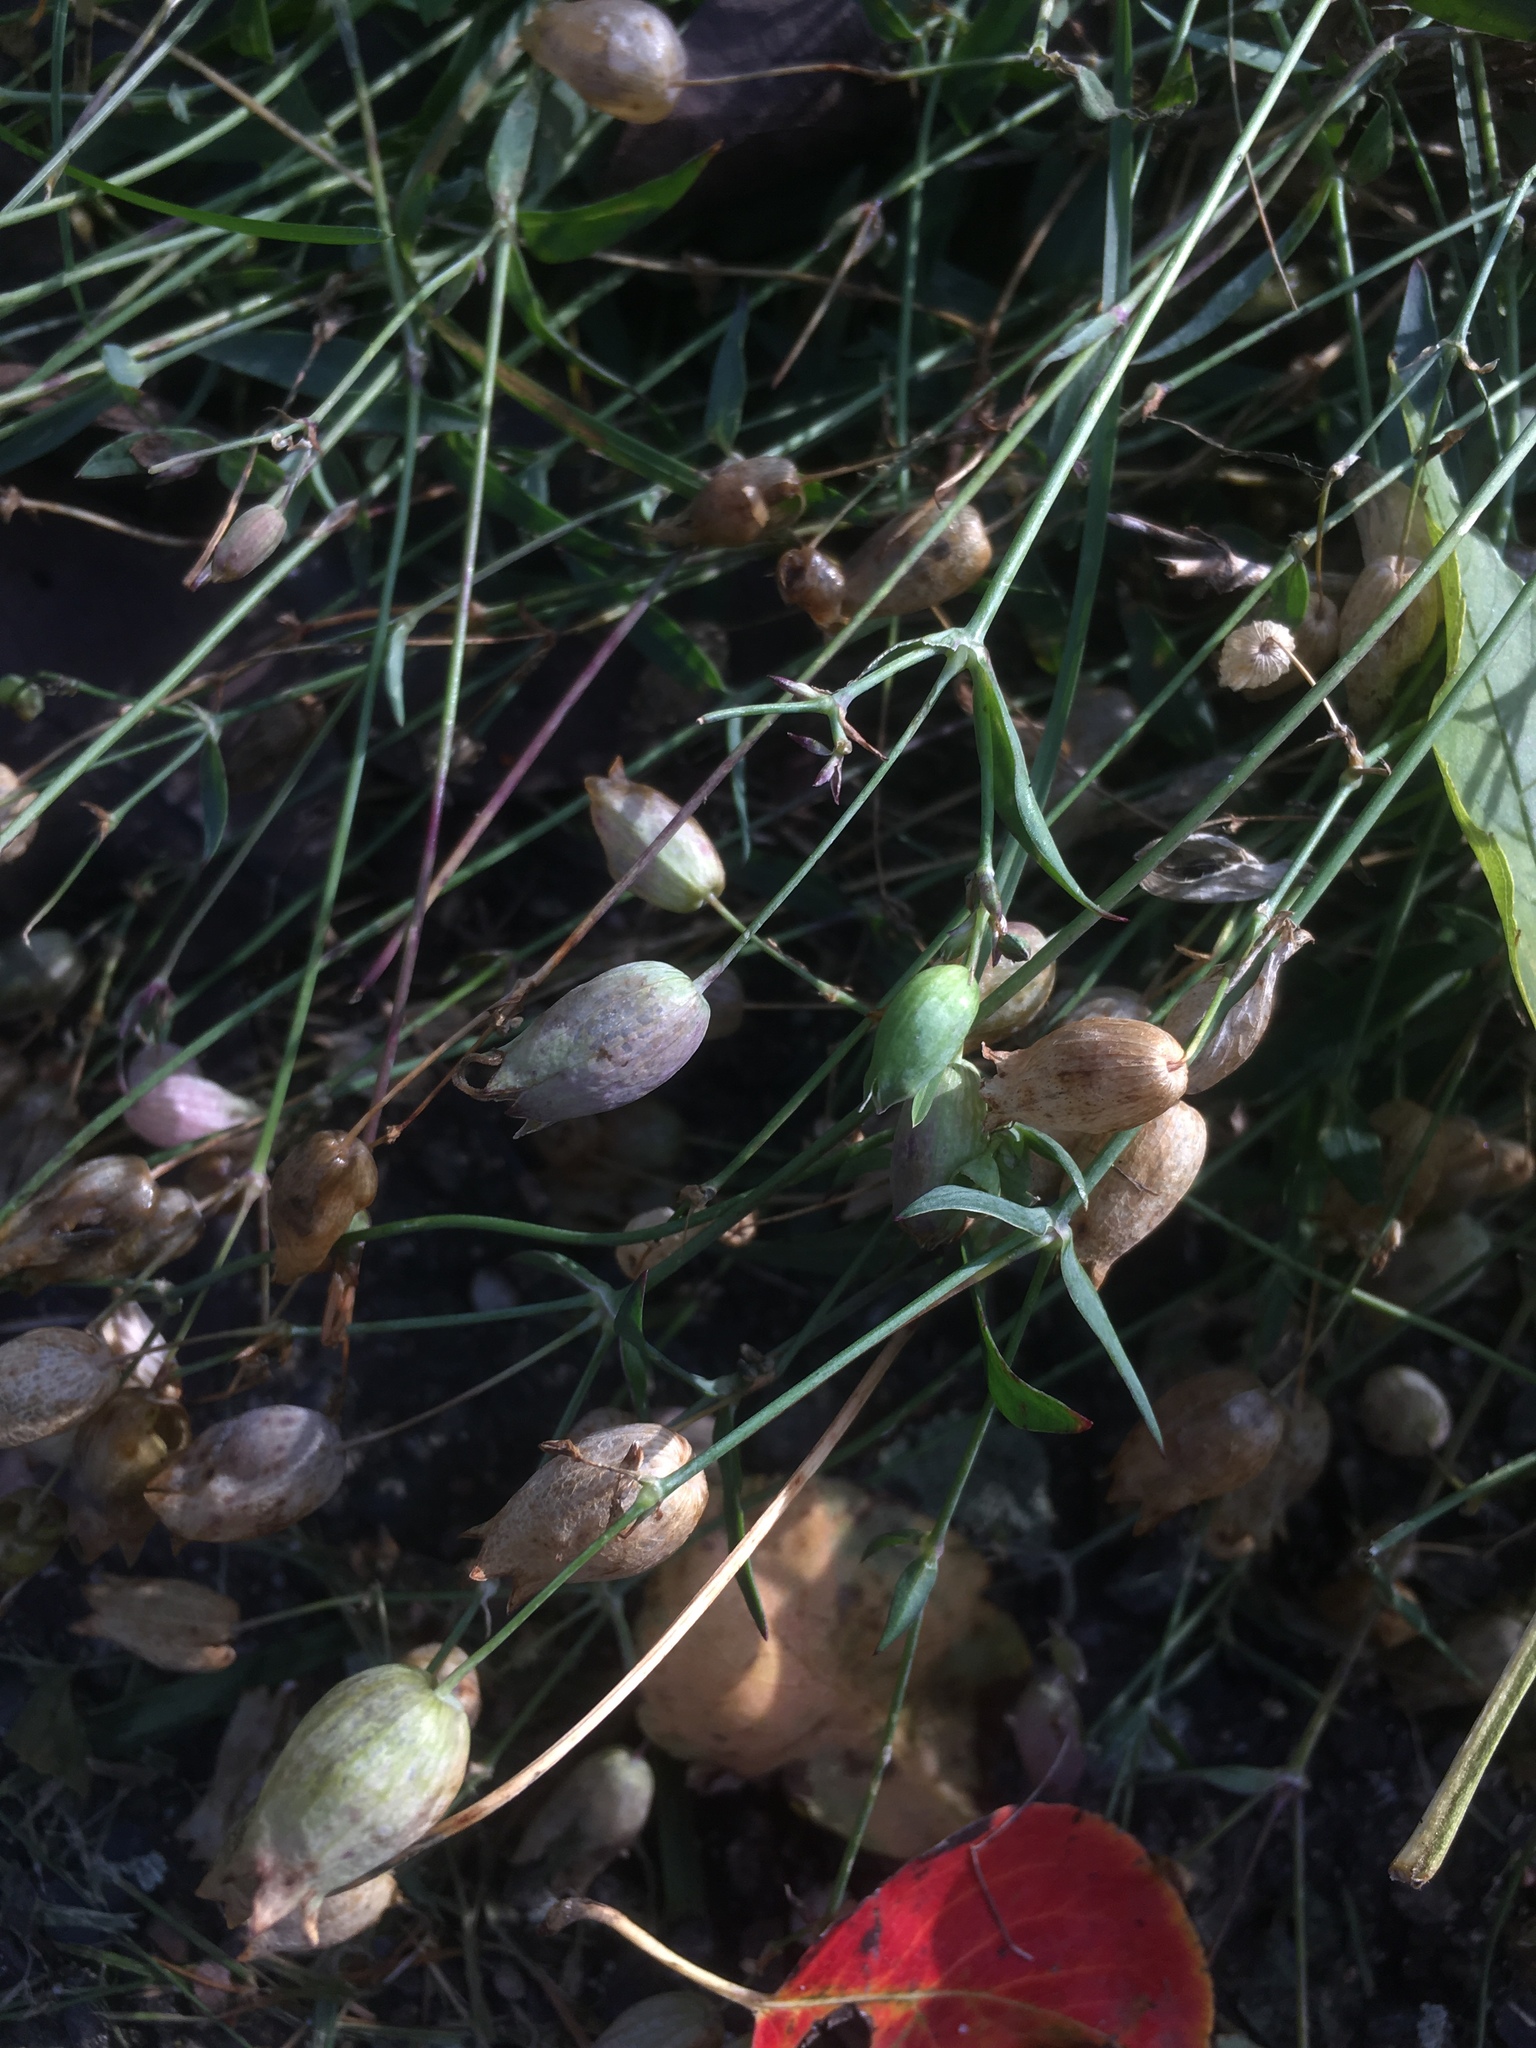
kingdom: Plantae
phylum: Tracheophyta
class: Magnoliopsida
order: Caryophyllales
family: Caryophyllaceae
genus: Silene
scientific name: Silene vulgaris
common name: Bladder campion
